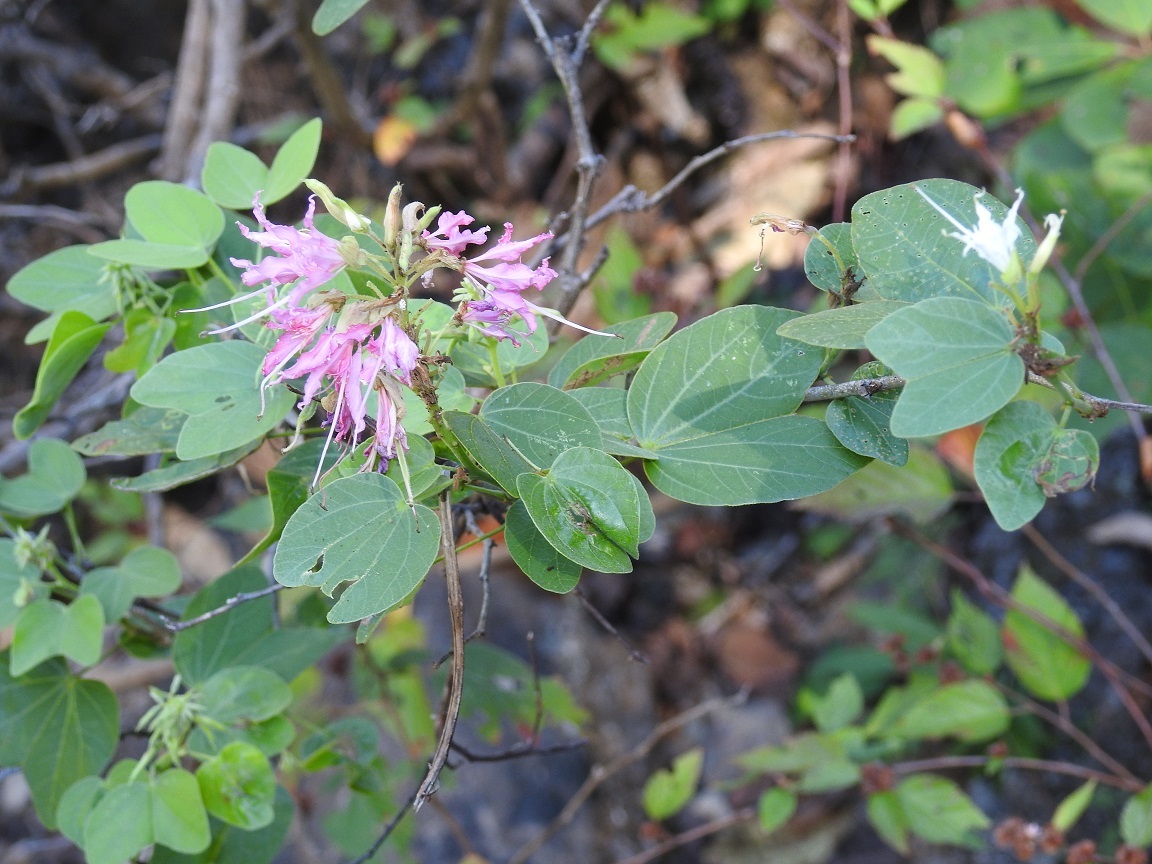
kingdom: Plantae
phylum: Tracheophyta
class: Magnoliopsida
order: Fabales
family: Fabaceae
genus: Bauhinia
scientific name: Bauhinia divaricata
